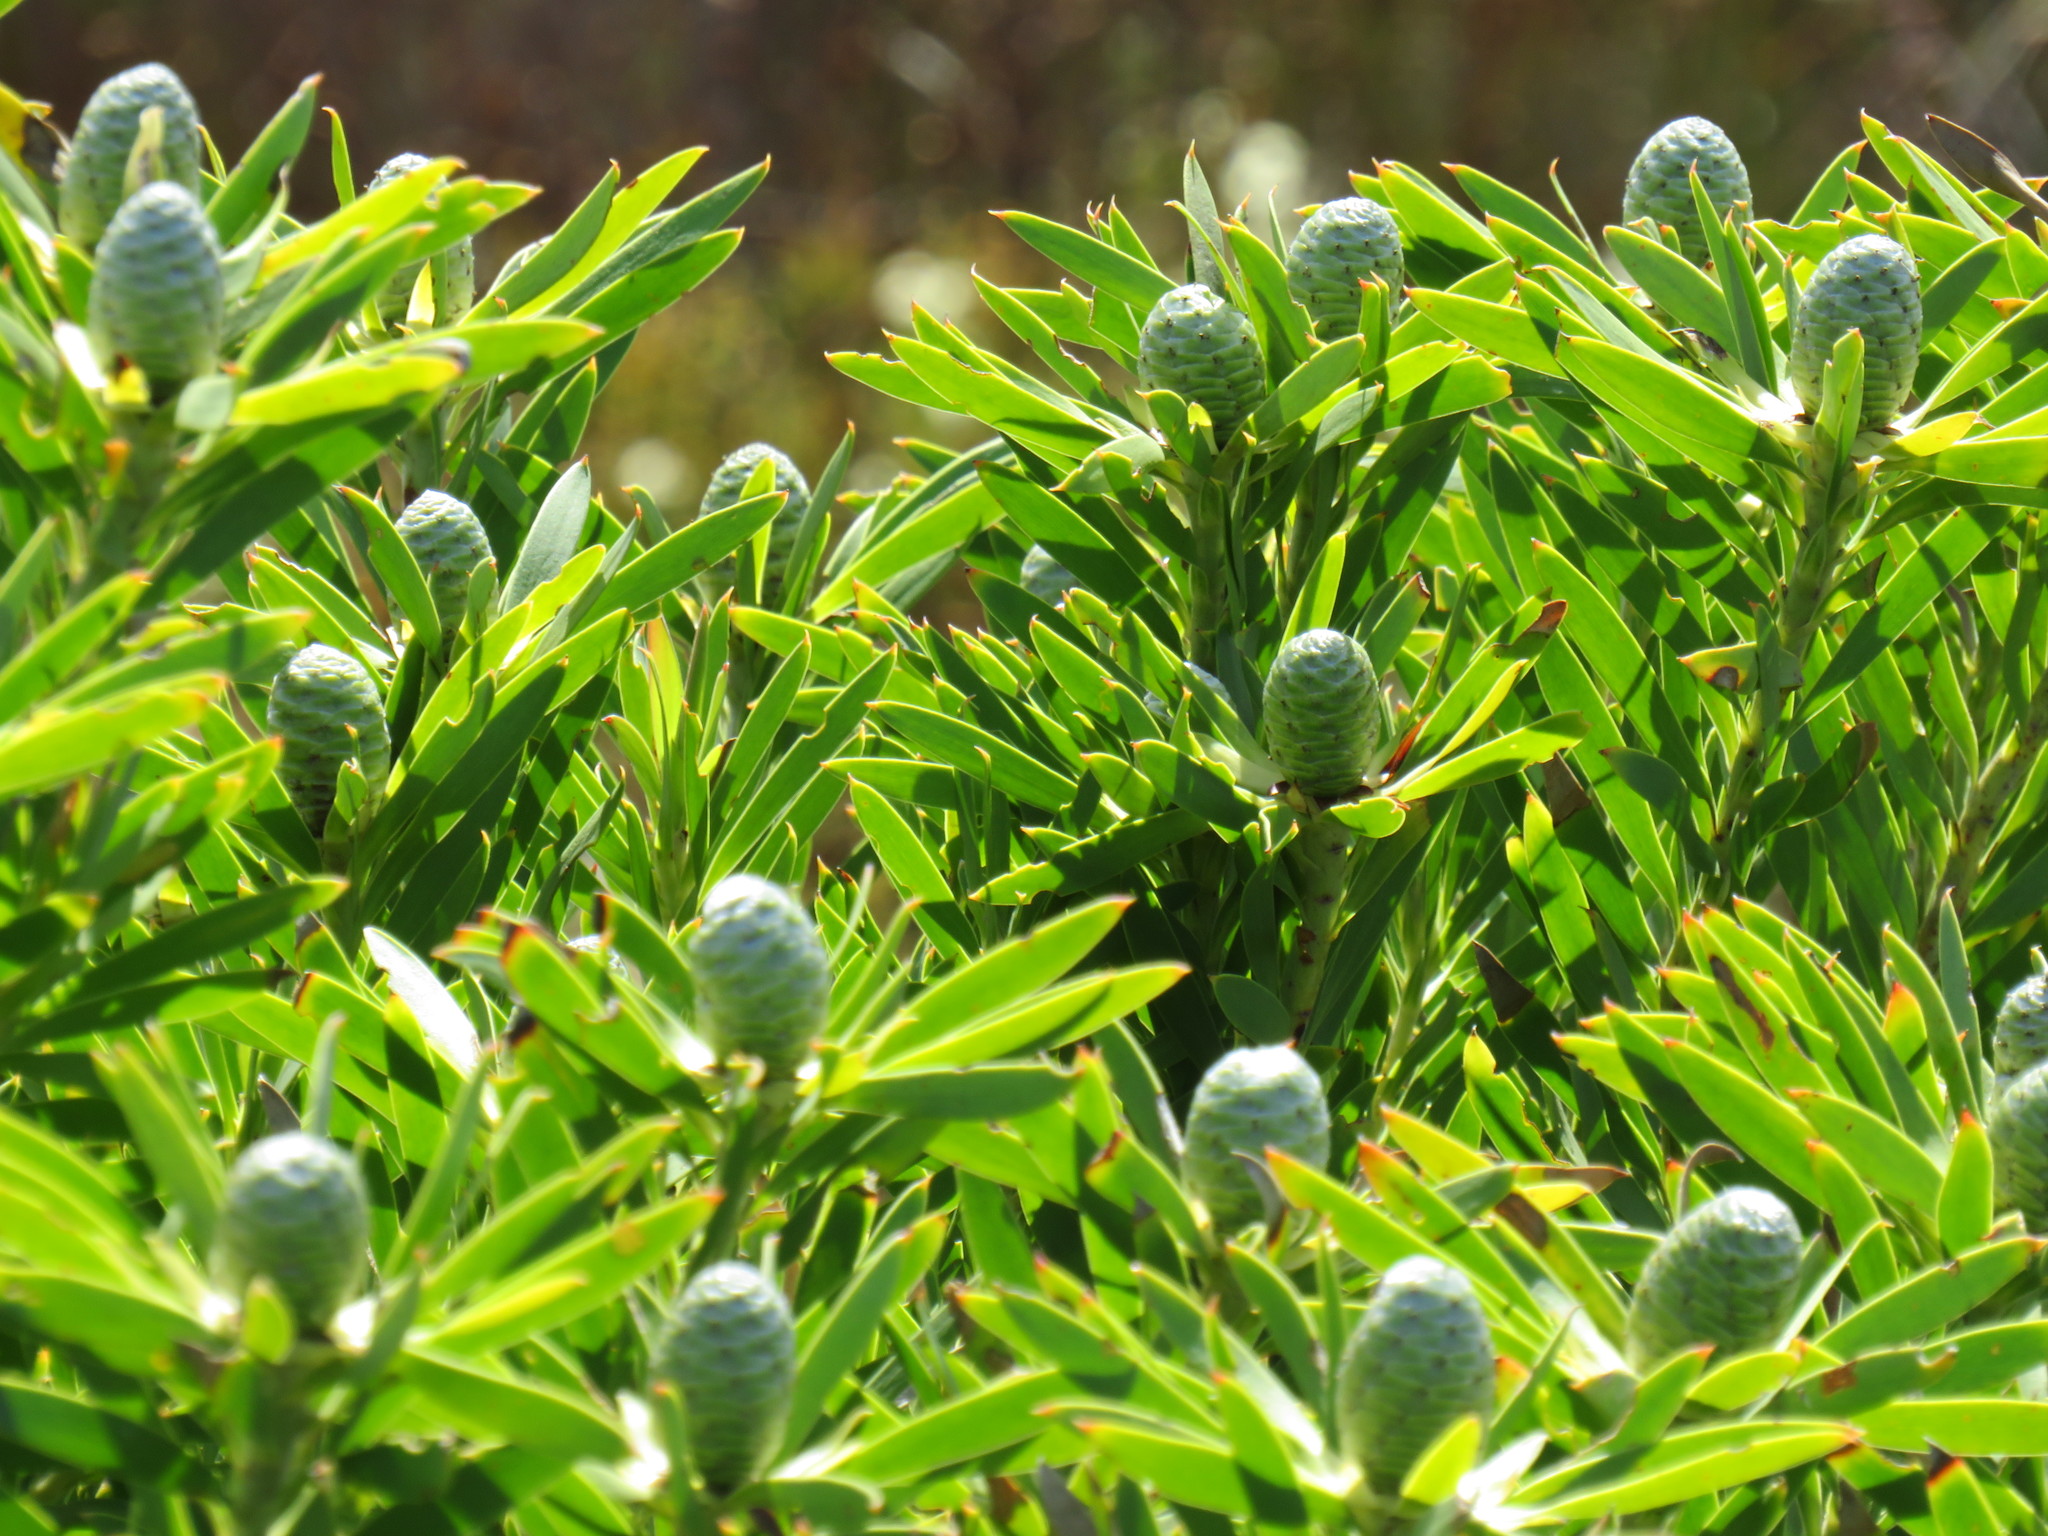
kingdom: Plantae
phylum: Tracheophyta
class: Magnoliopsida
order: Proteales
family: Proteaceae
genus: Leucadendron
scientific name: Leucadendron coniferum
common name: Dune conebush
